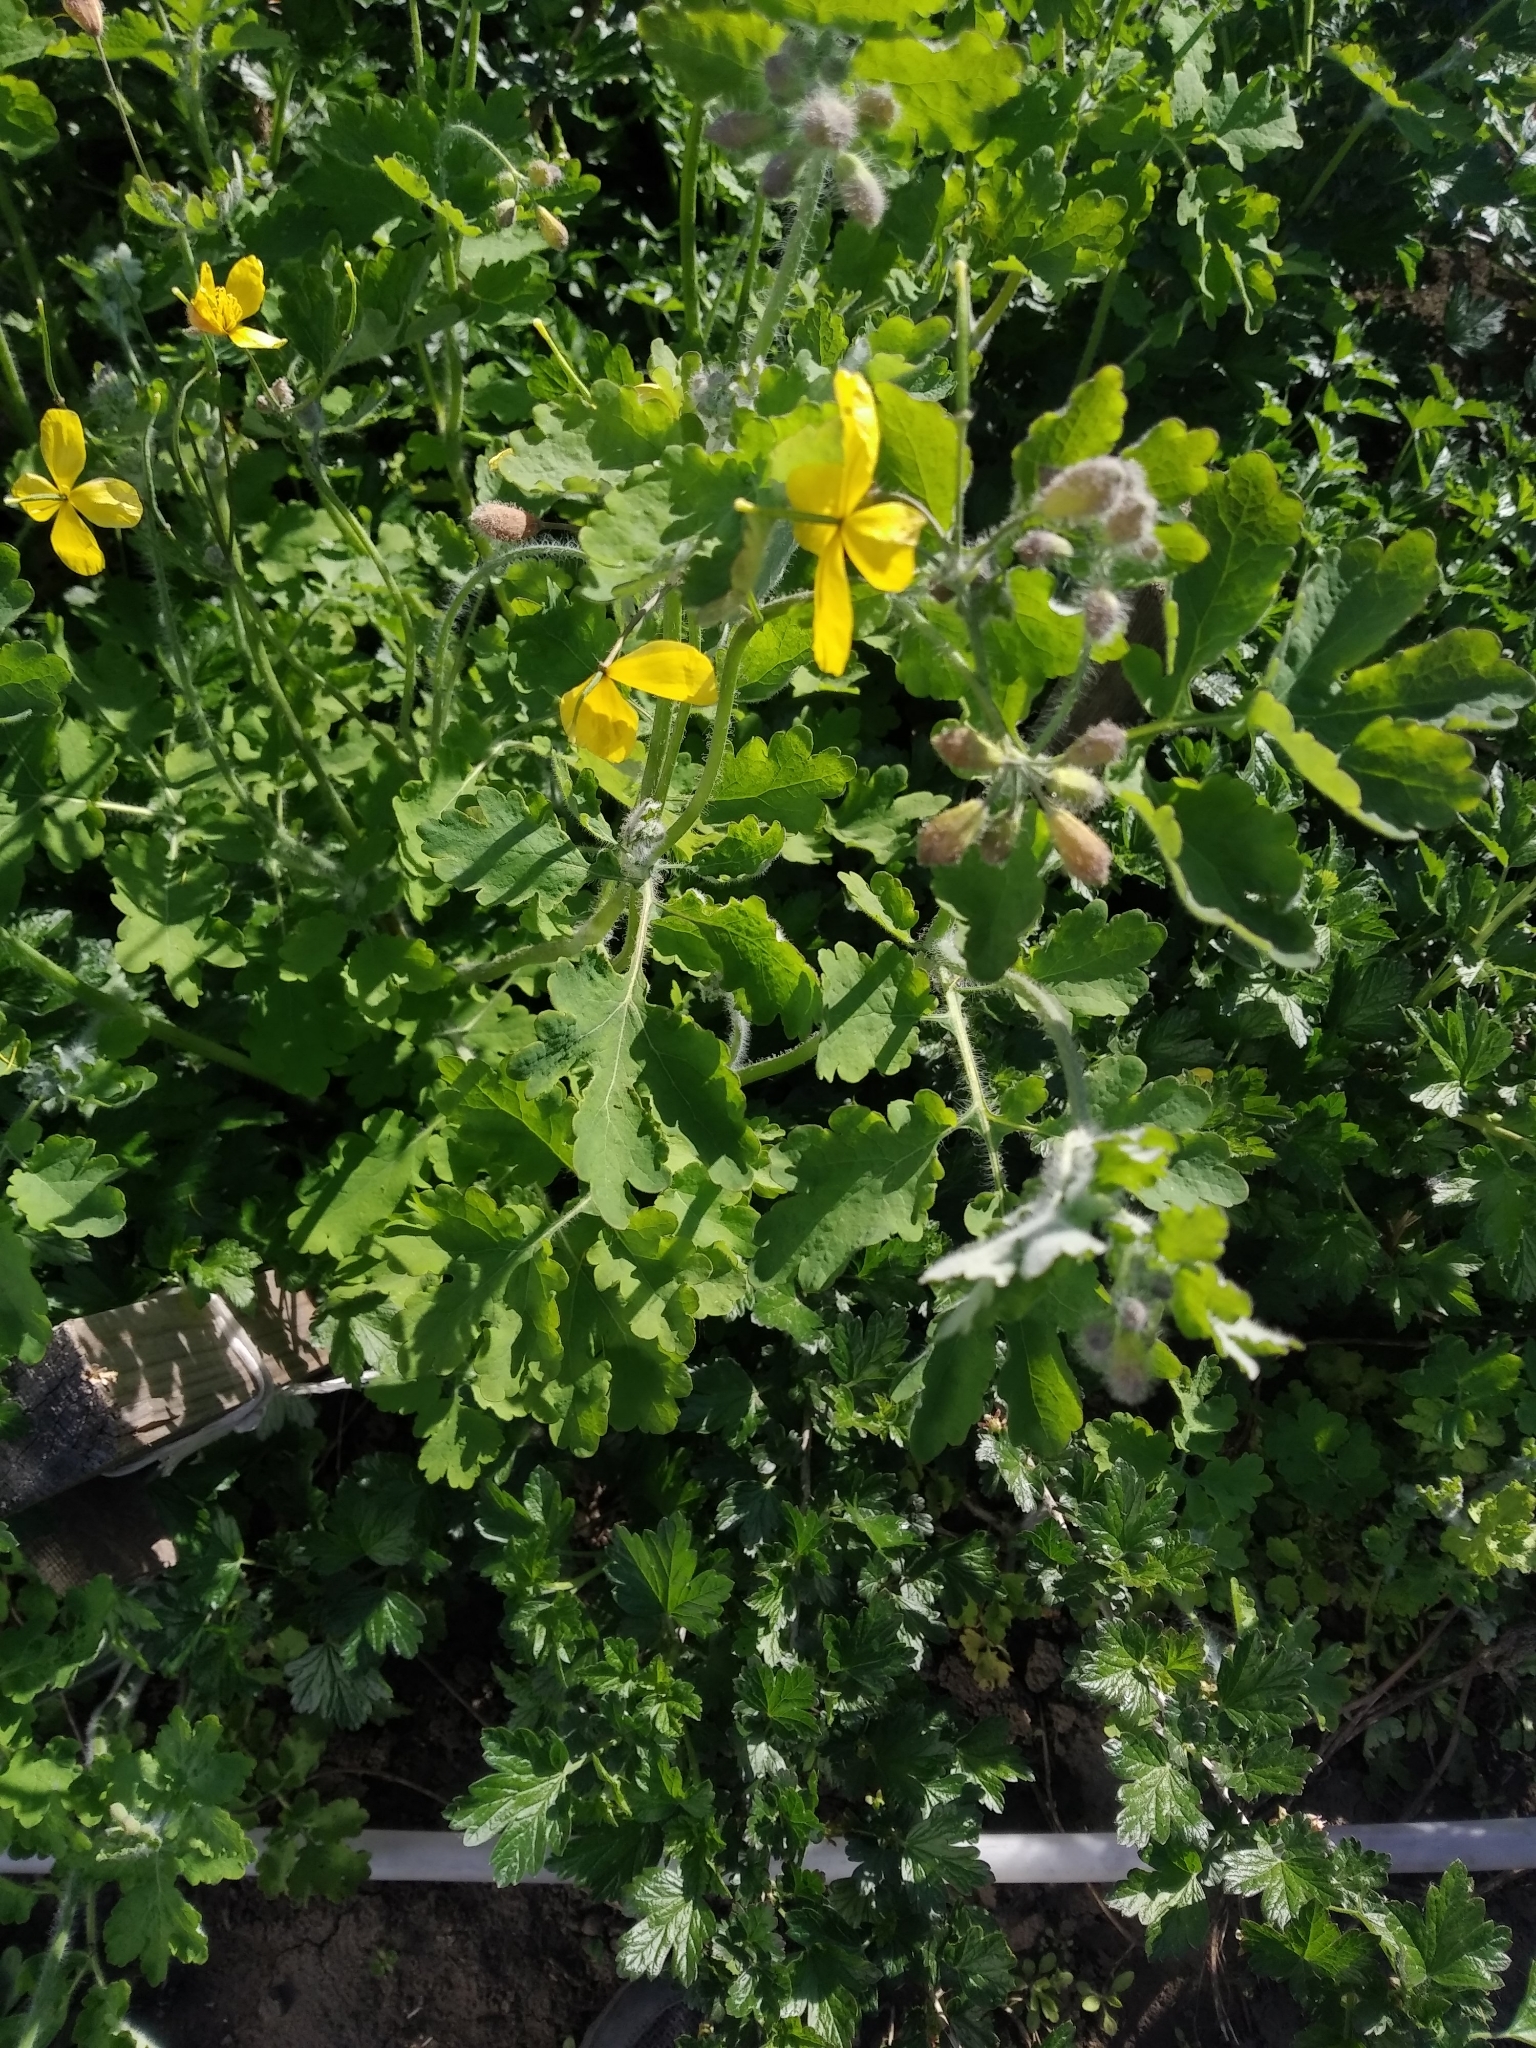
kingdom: Plantae
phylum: Tracheophyta
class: Magnoliopsida
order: Ranunculales
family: Papaveraceae
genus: Chelidonium
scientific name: Chelidonium majus
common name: Greater celandine
